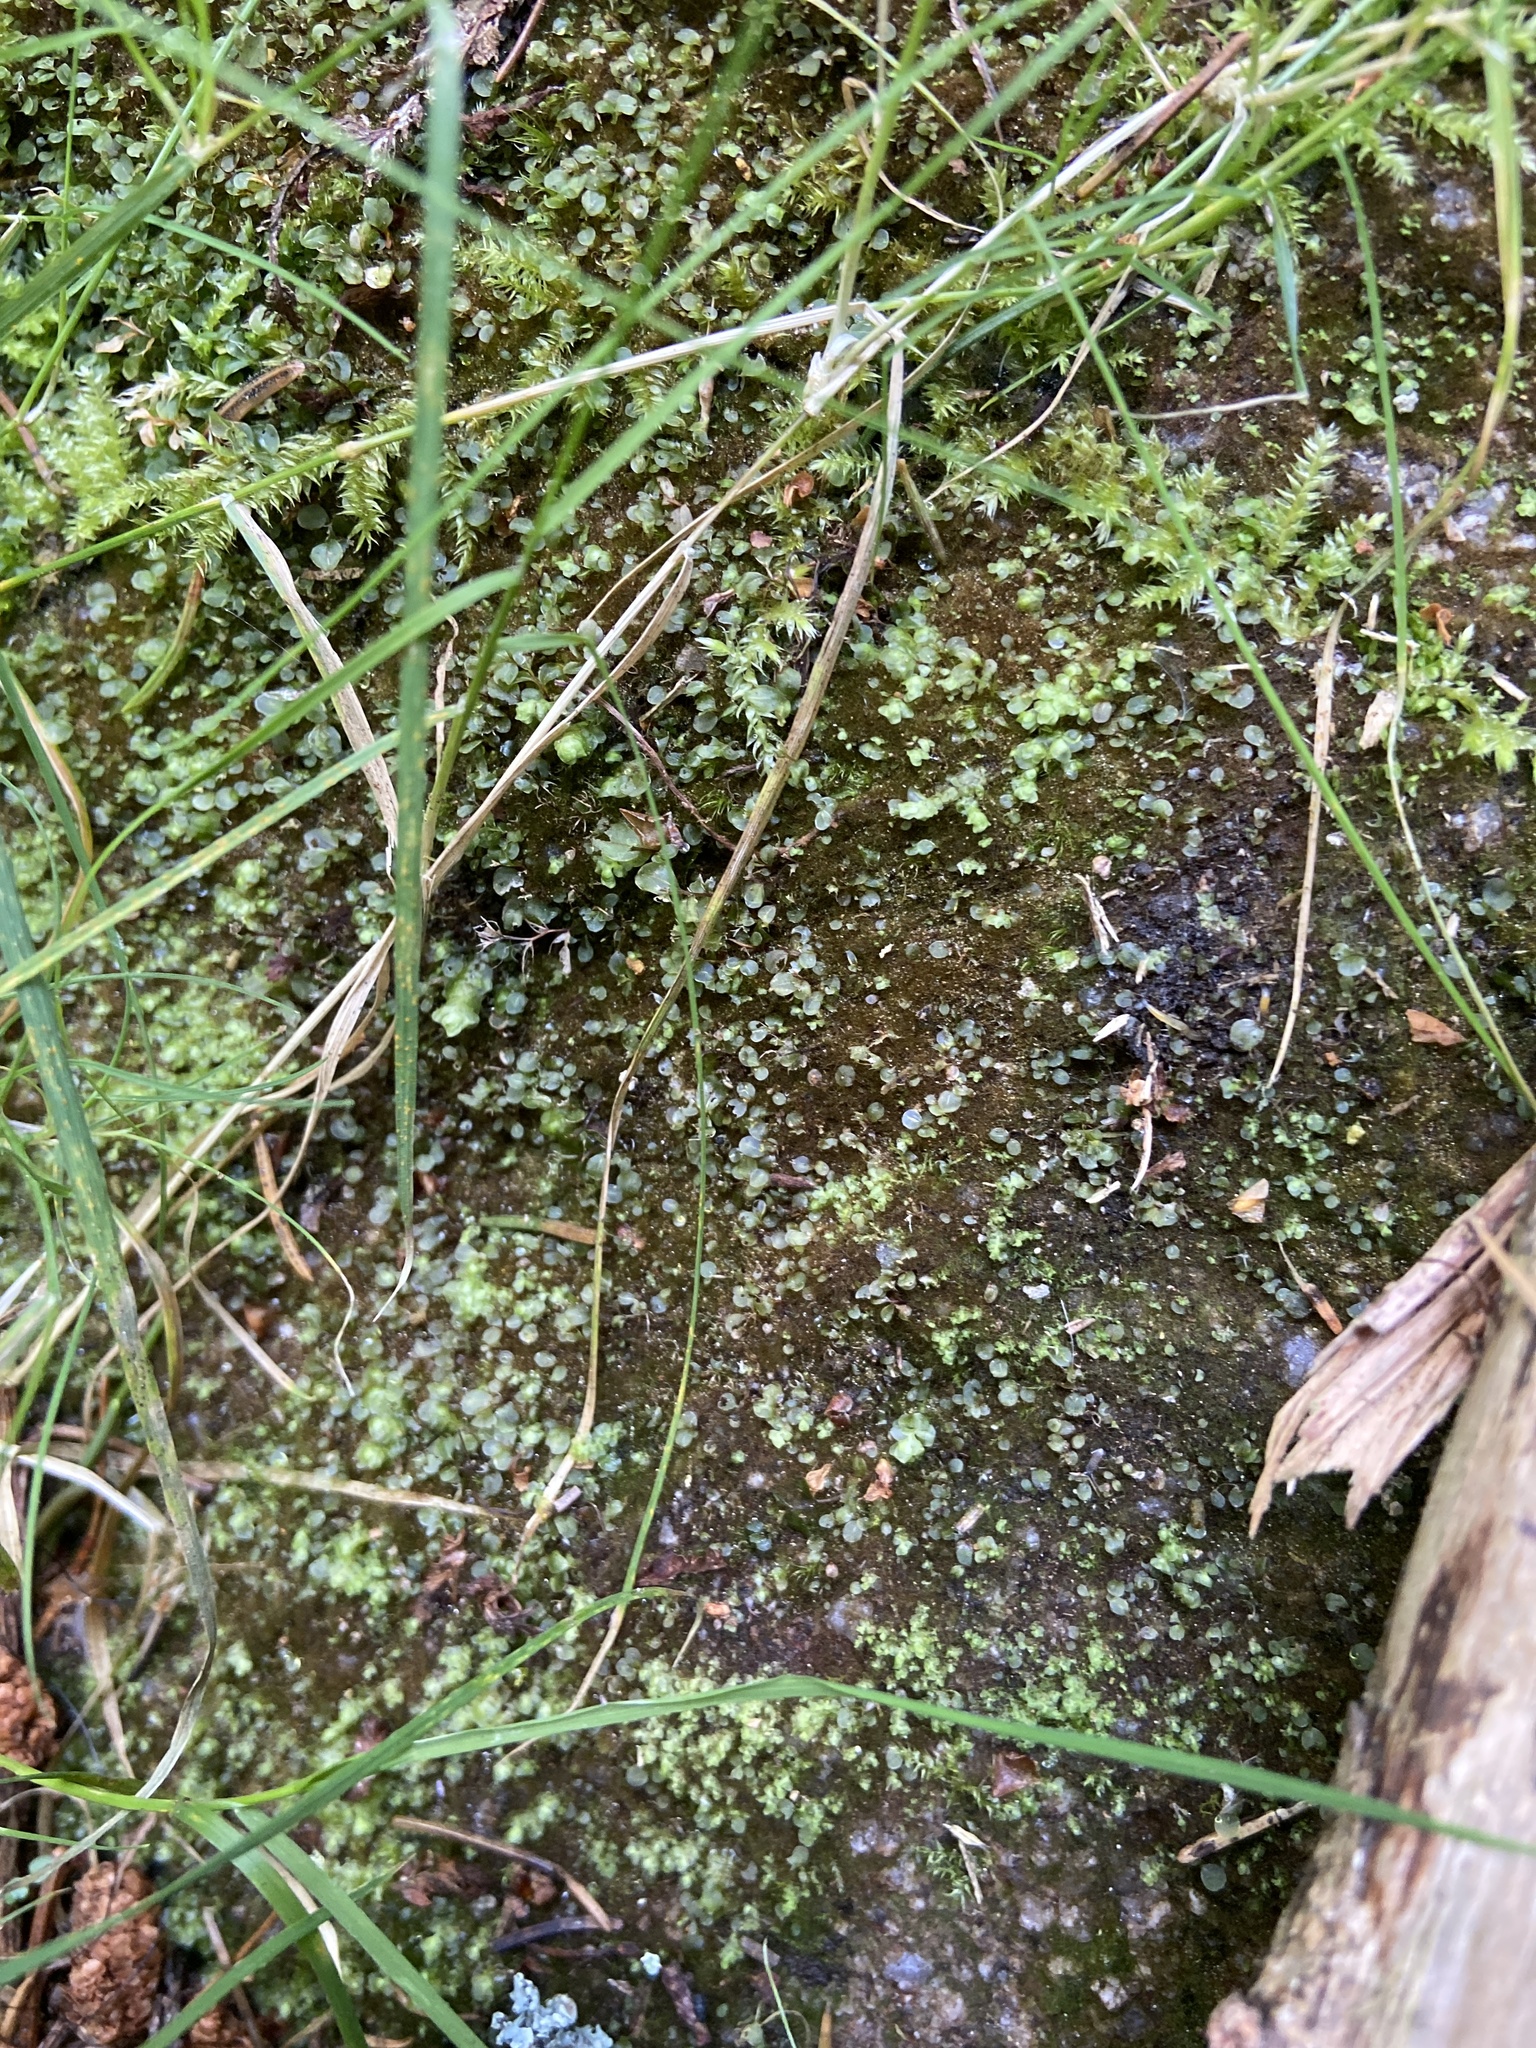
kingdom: Plantae
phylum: Bryophyta
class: Bryopsida
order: Bryales
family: Mniaceae
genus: Rhizomnium
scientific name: Rhizomnium punctatum
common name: Dotted leafy moss
